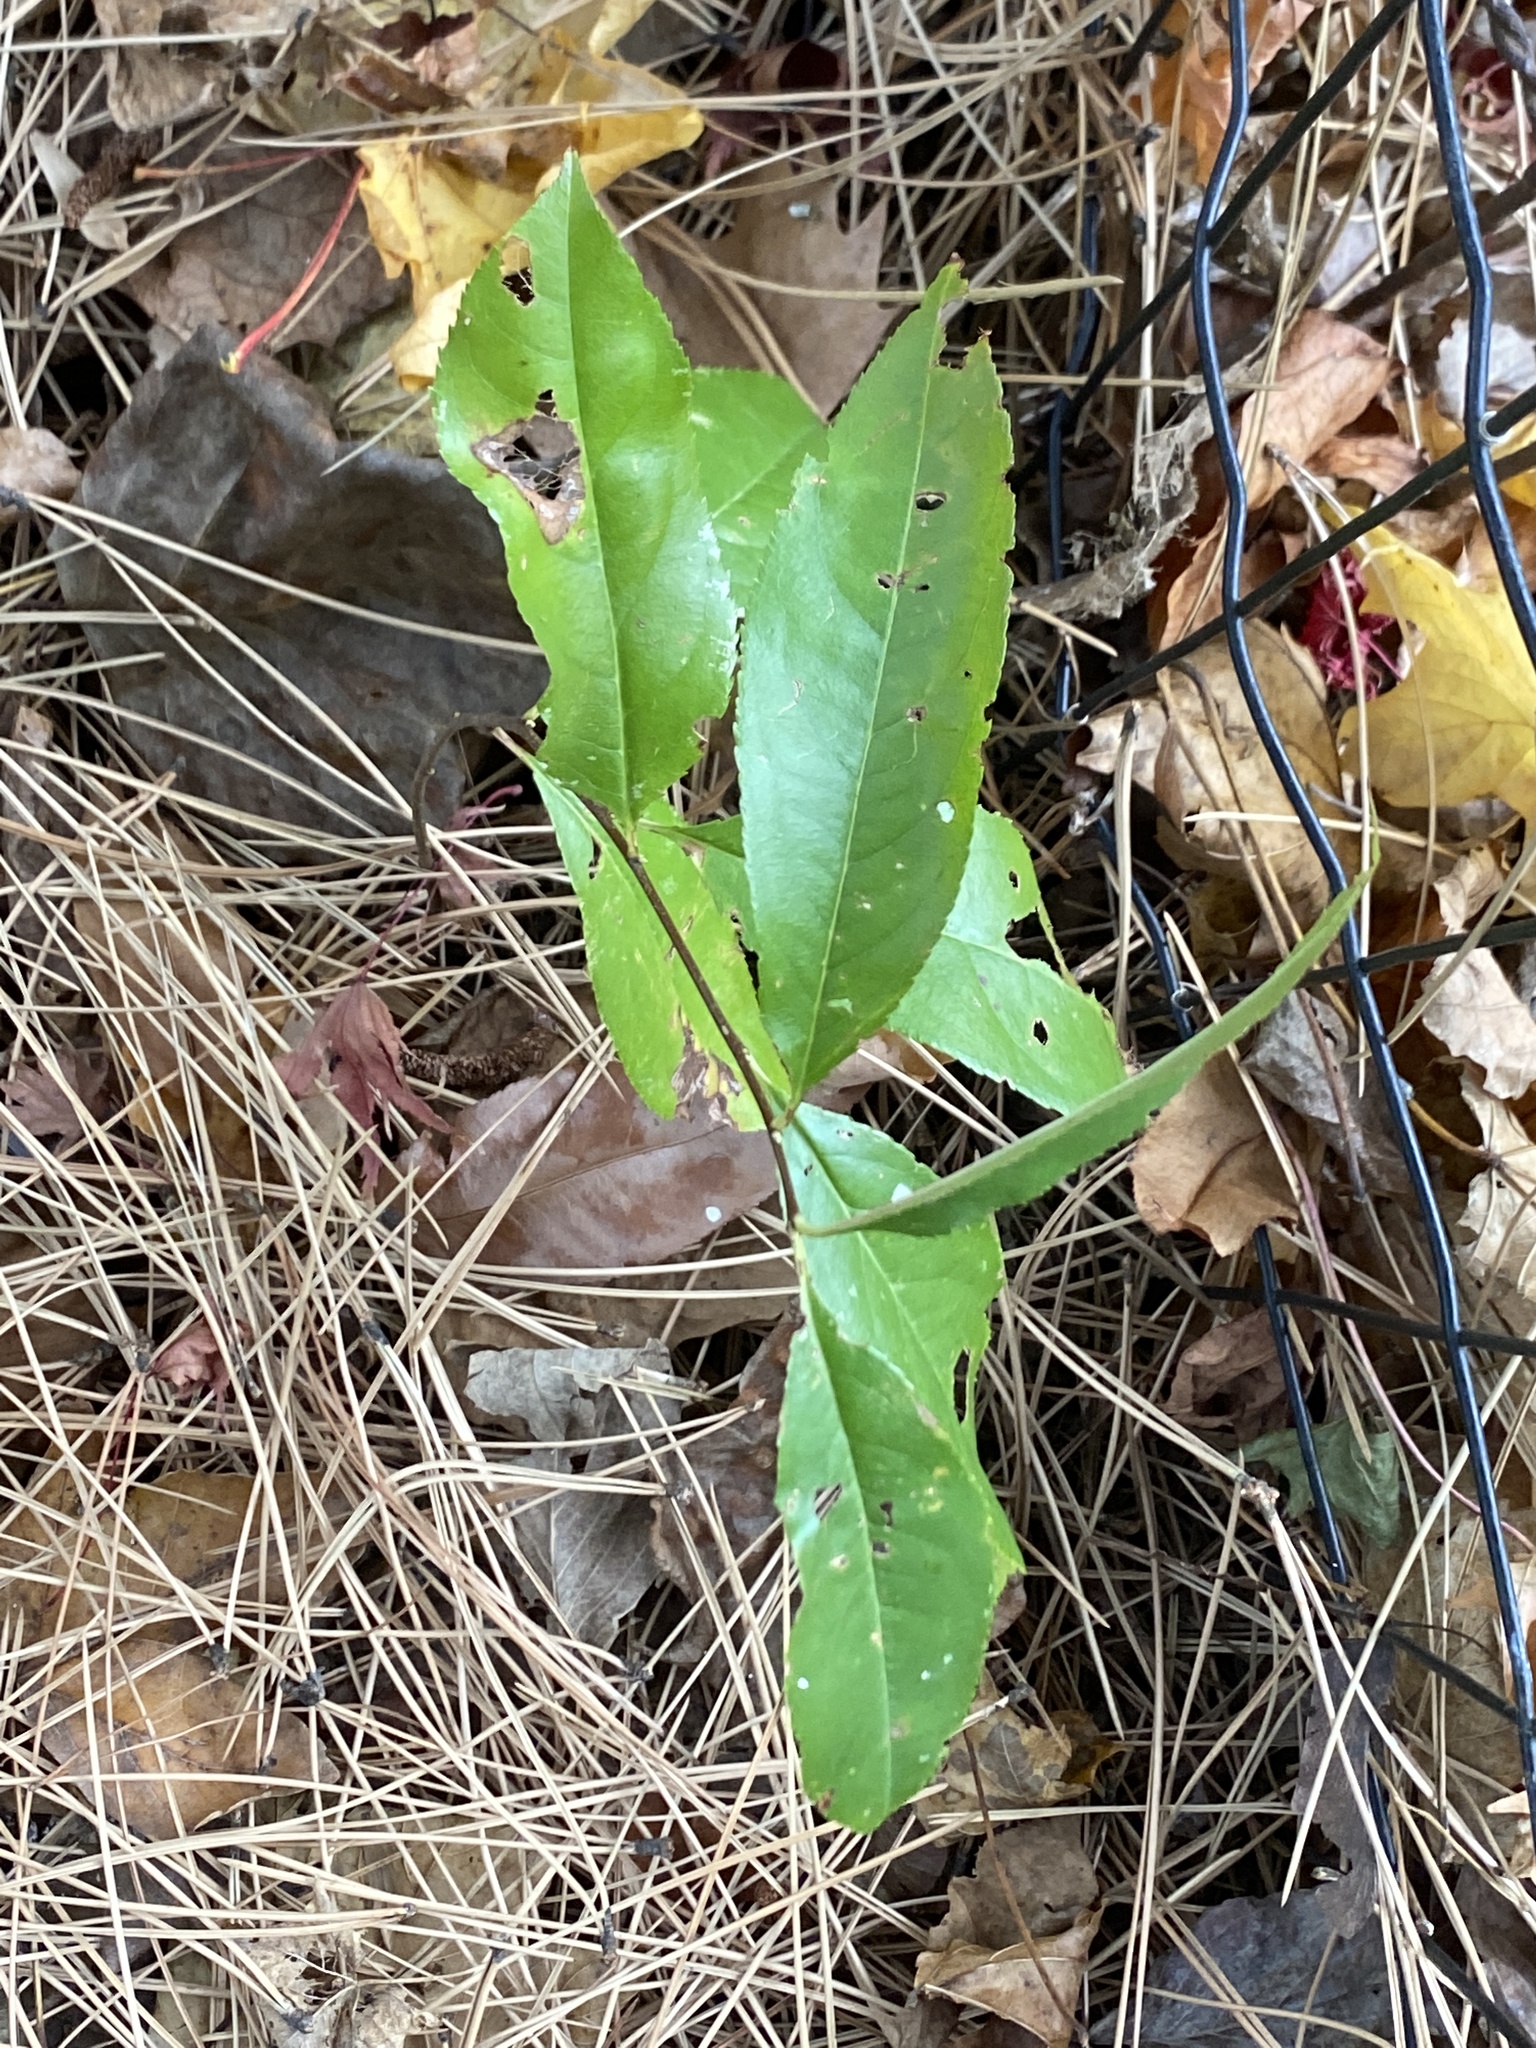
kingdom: Plantae
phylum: Tracheophyta
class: Magnoliopsida
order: Rosales
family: Rosaceae
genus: Prunus
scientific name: Prunus serotina
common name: Black cherry
